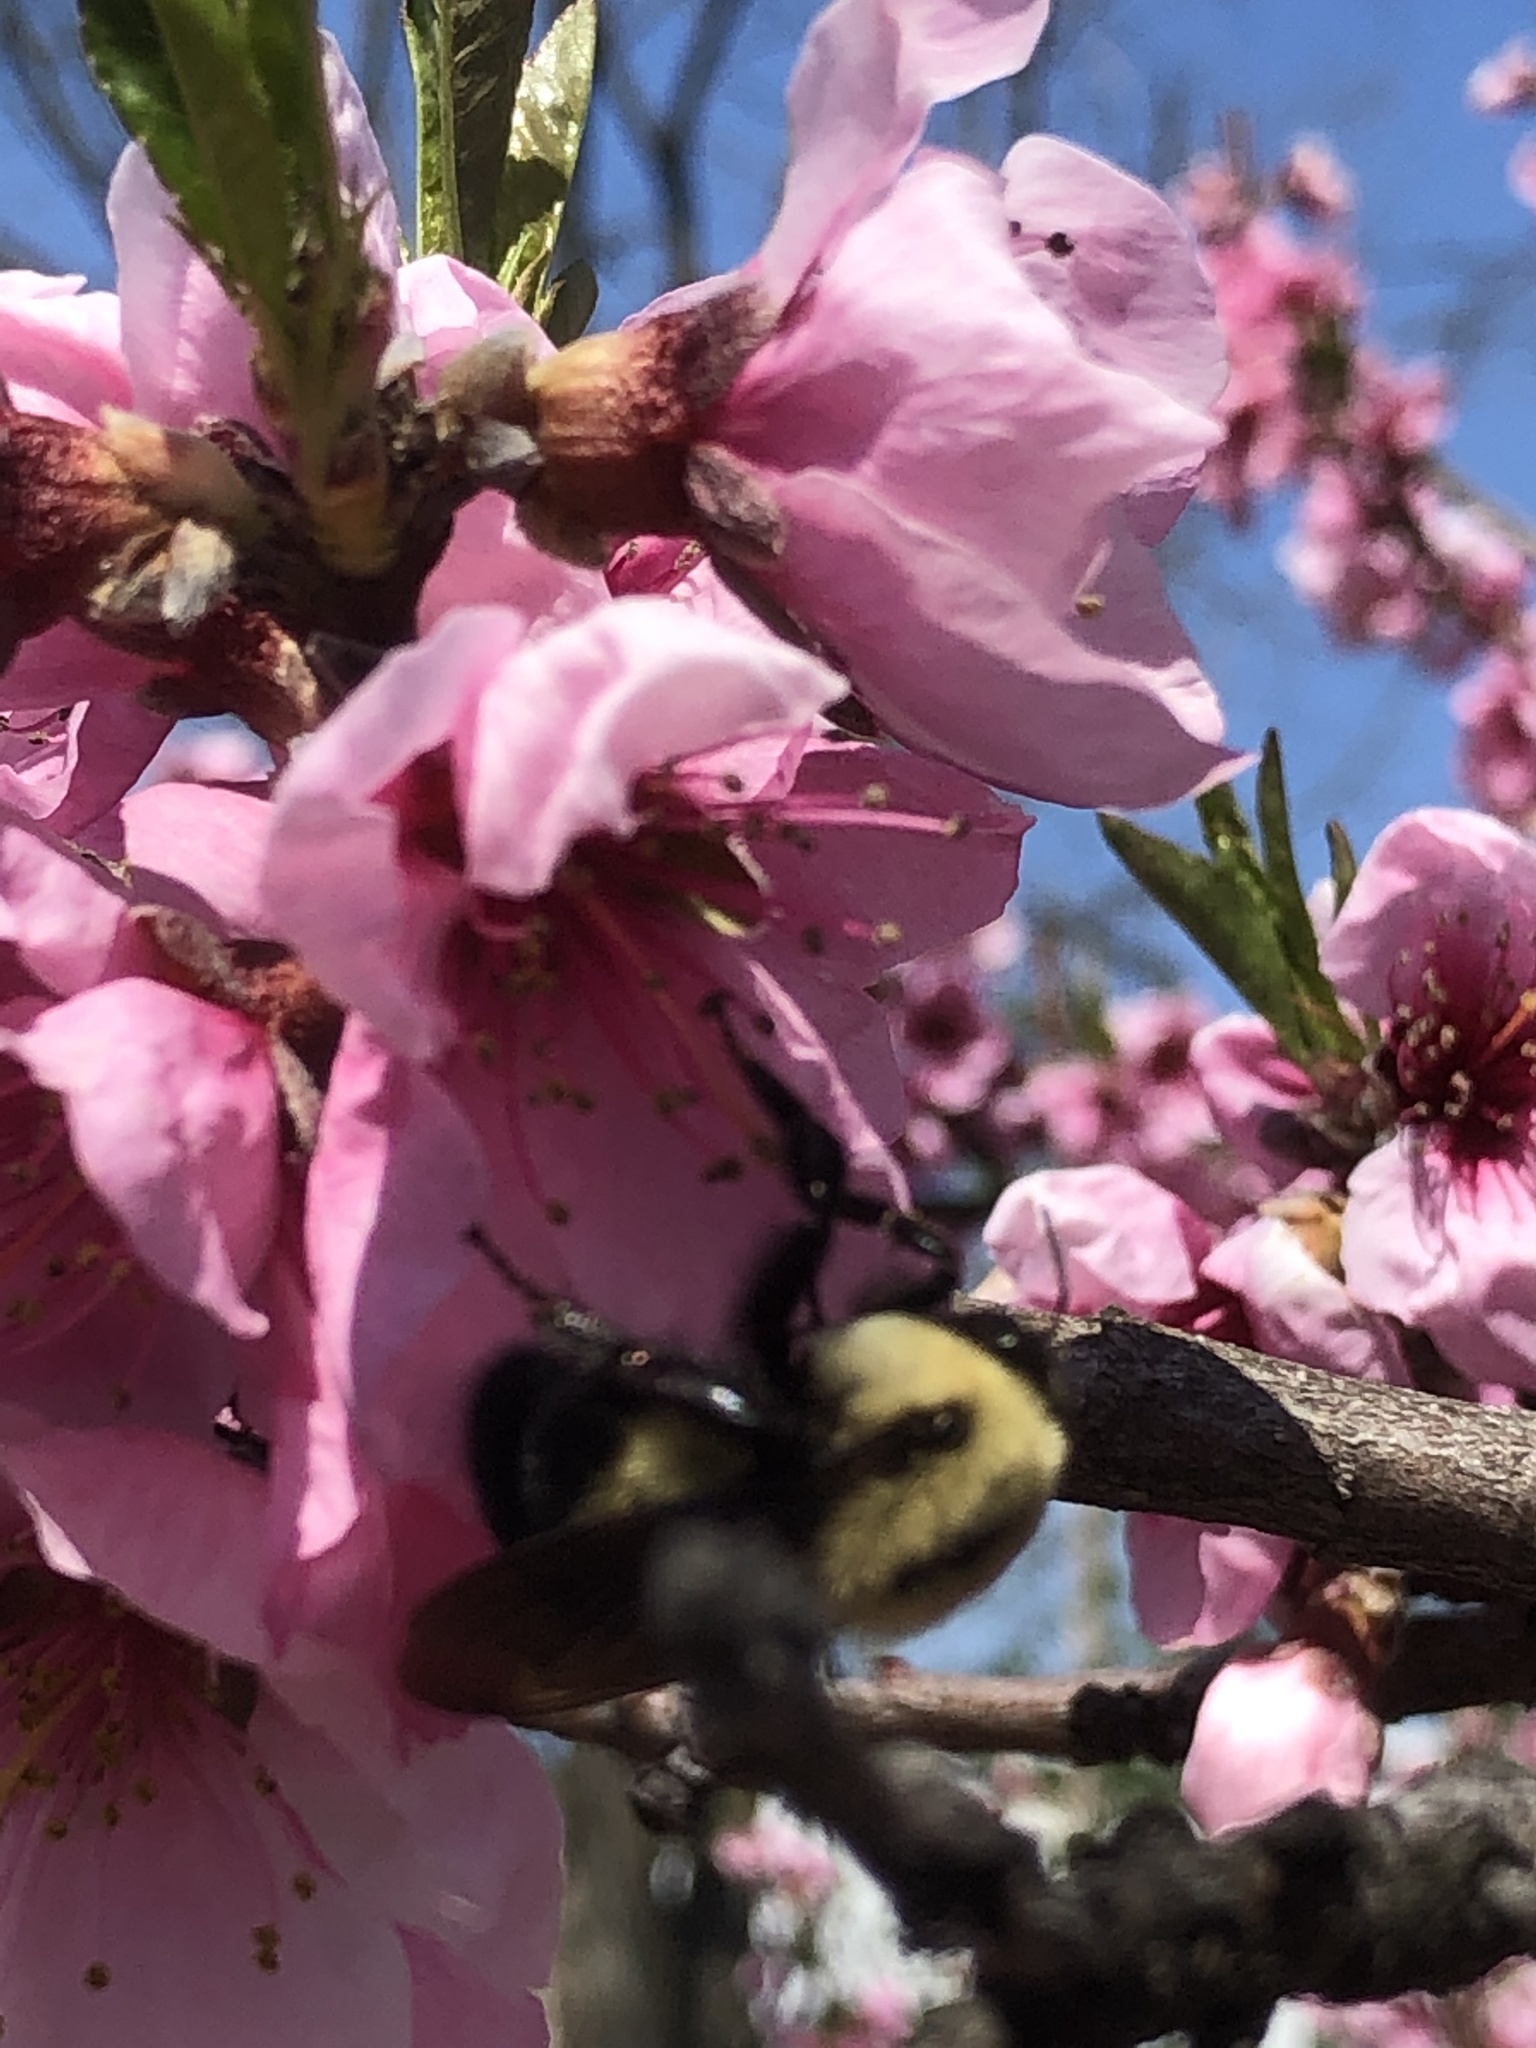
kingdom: Animalia
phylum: Arthropoda
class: Insecta
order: Hymenoptera
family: Apidae
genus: Bombus
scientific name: Bombus griseocollis
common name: Brown-belted bumble bee
